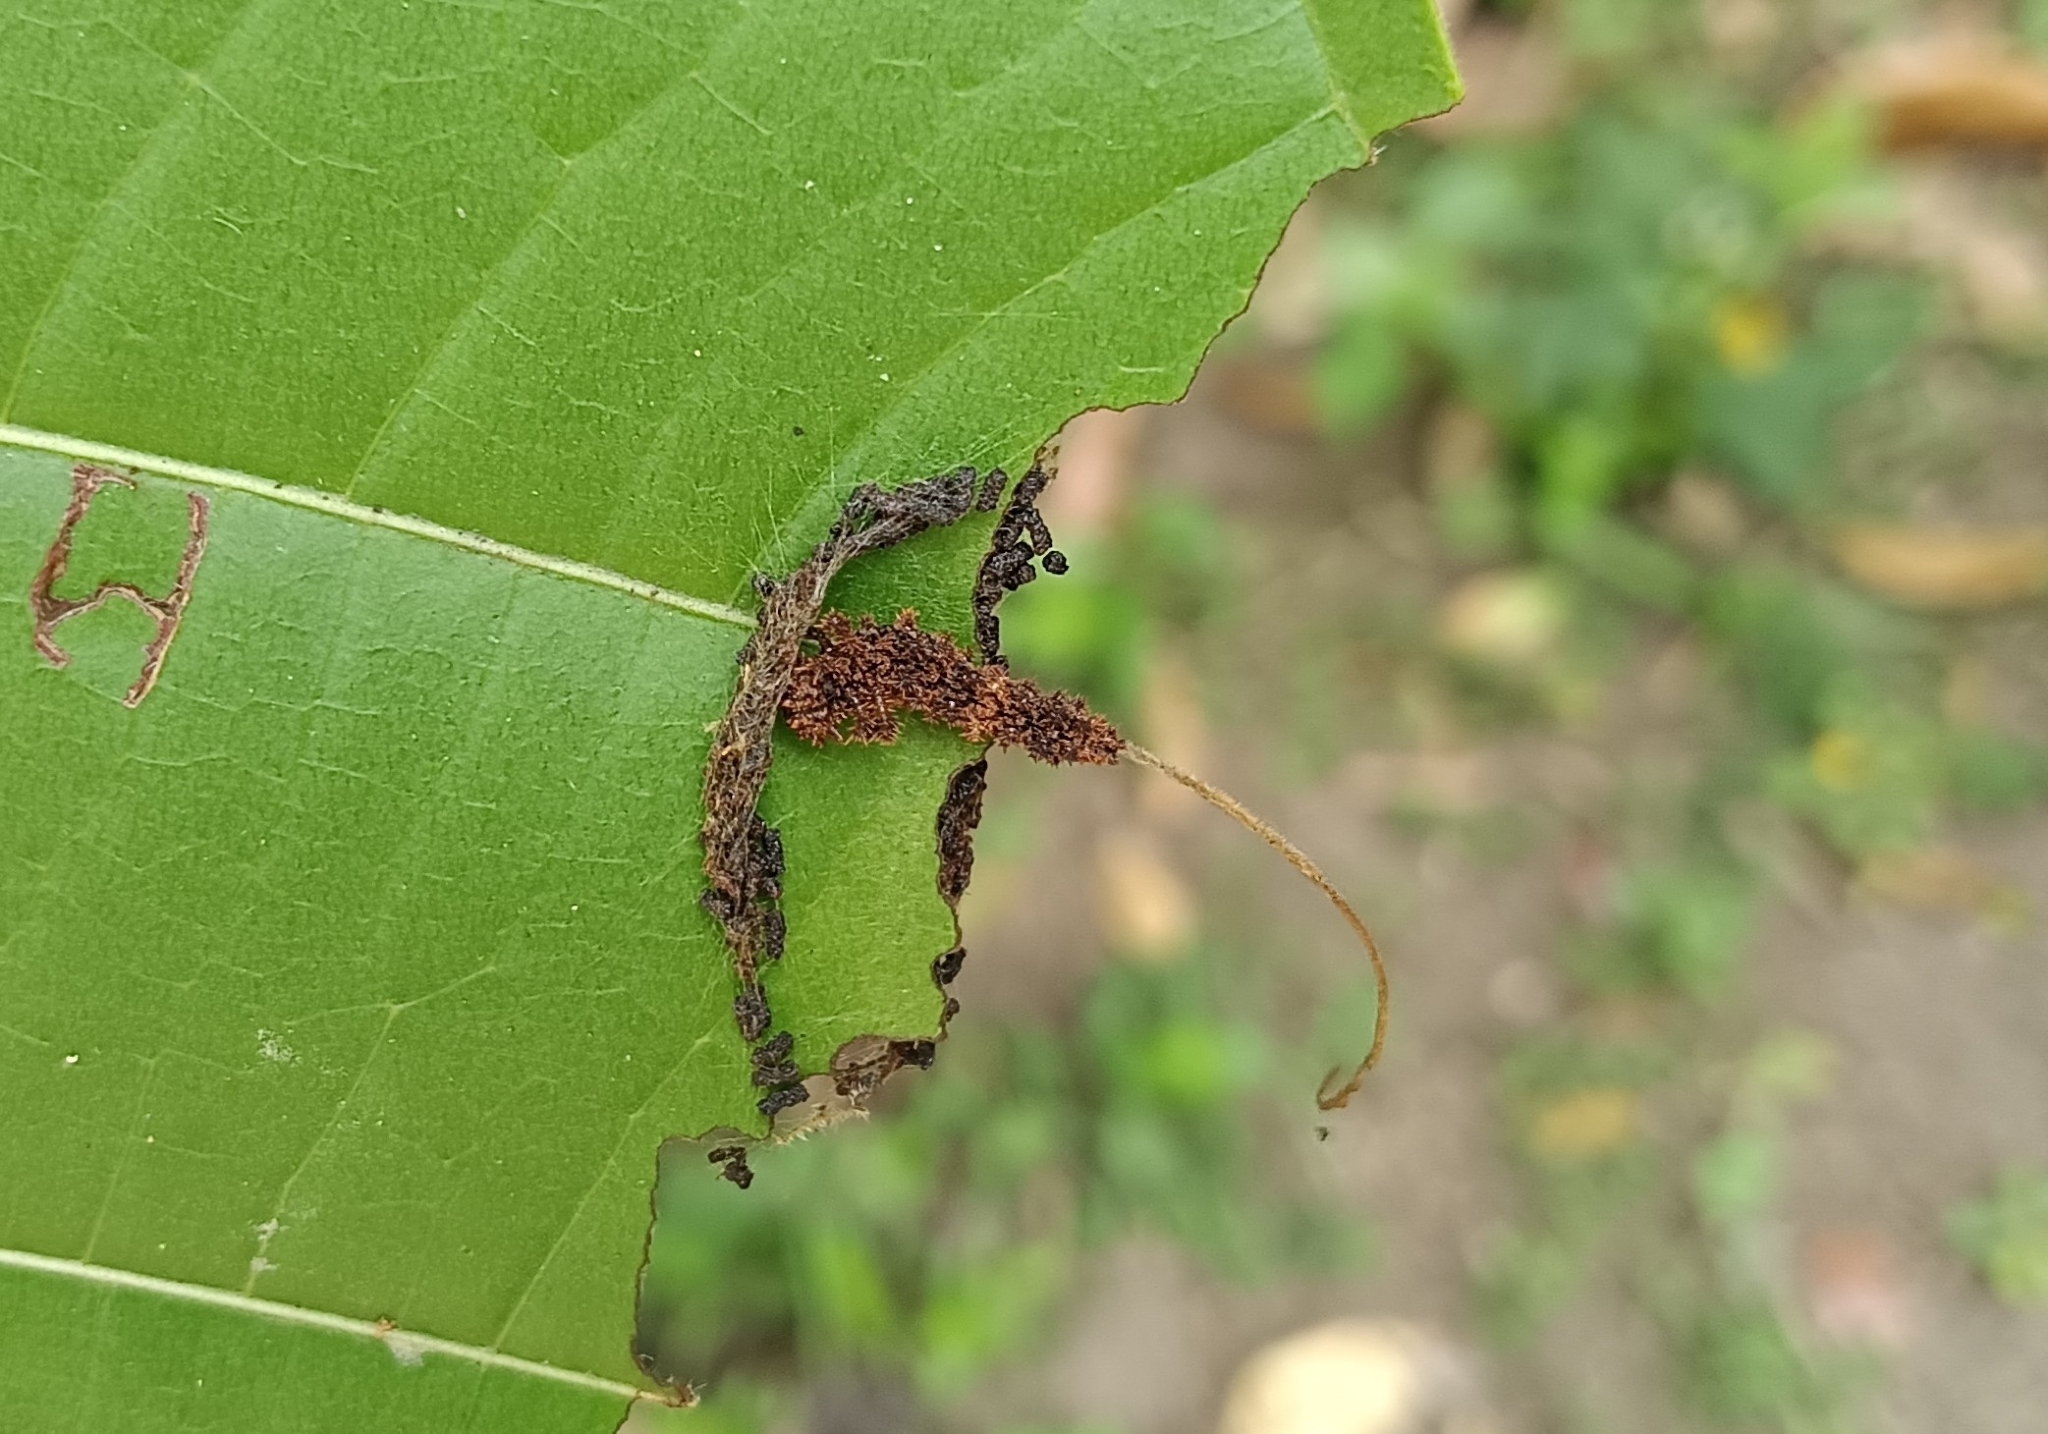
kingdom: Animalia
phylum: Arthropoda
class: Insecta
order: Lepidoptera
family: Nymphalidae
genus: Limenitis
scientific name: Limenitis Moduza procris
